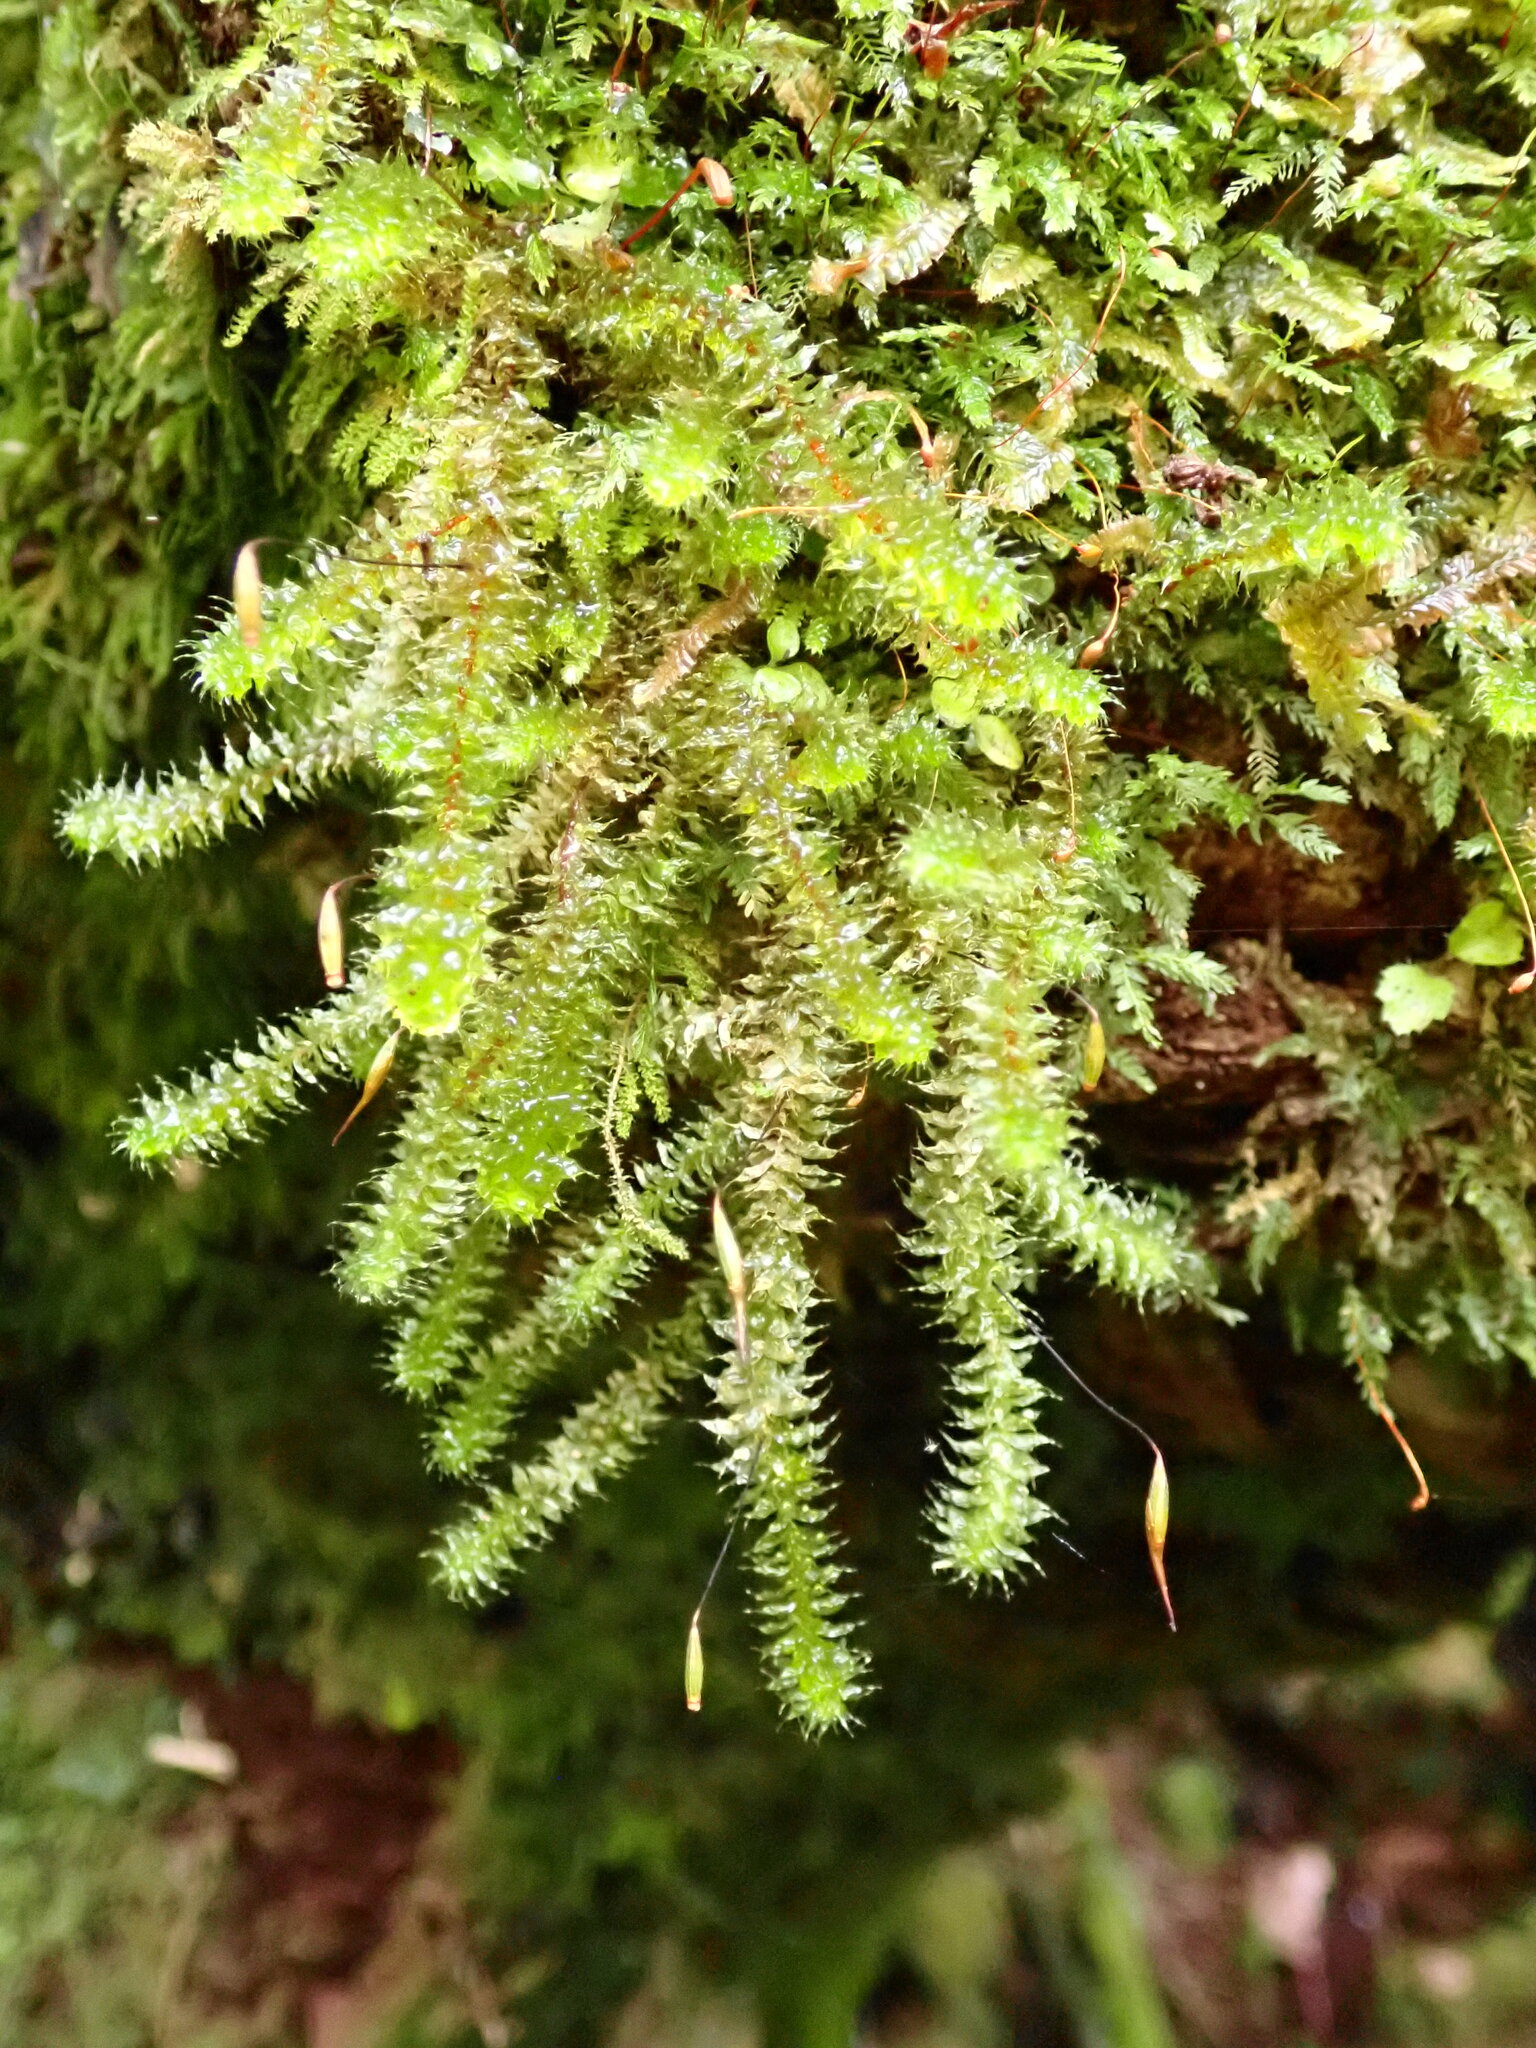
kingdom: Plantae
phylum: Bryophyta
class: Bryopsida
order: Ptychomniales
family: Ptychomniaceae
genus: Ptychomnion
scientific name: Ptychomnion aciculare
